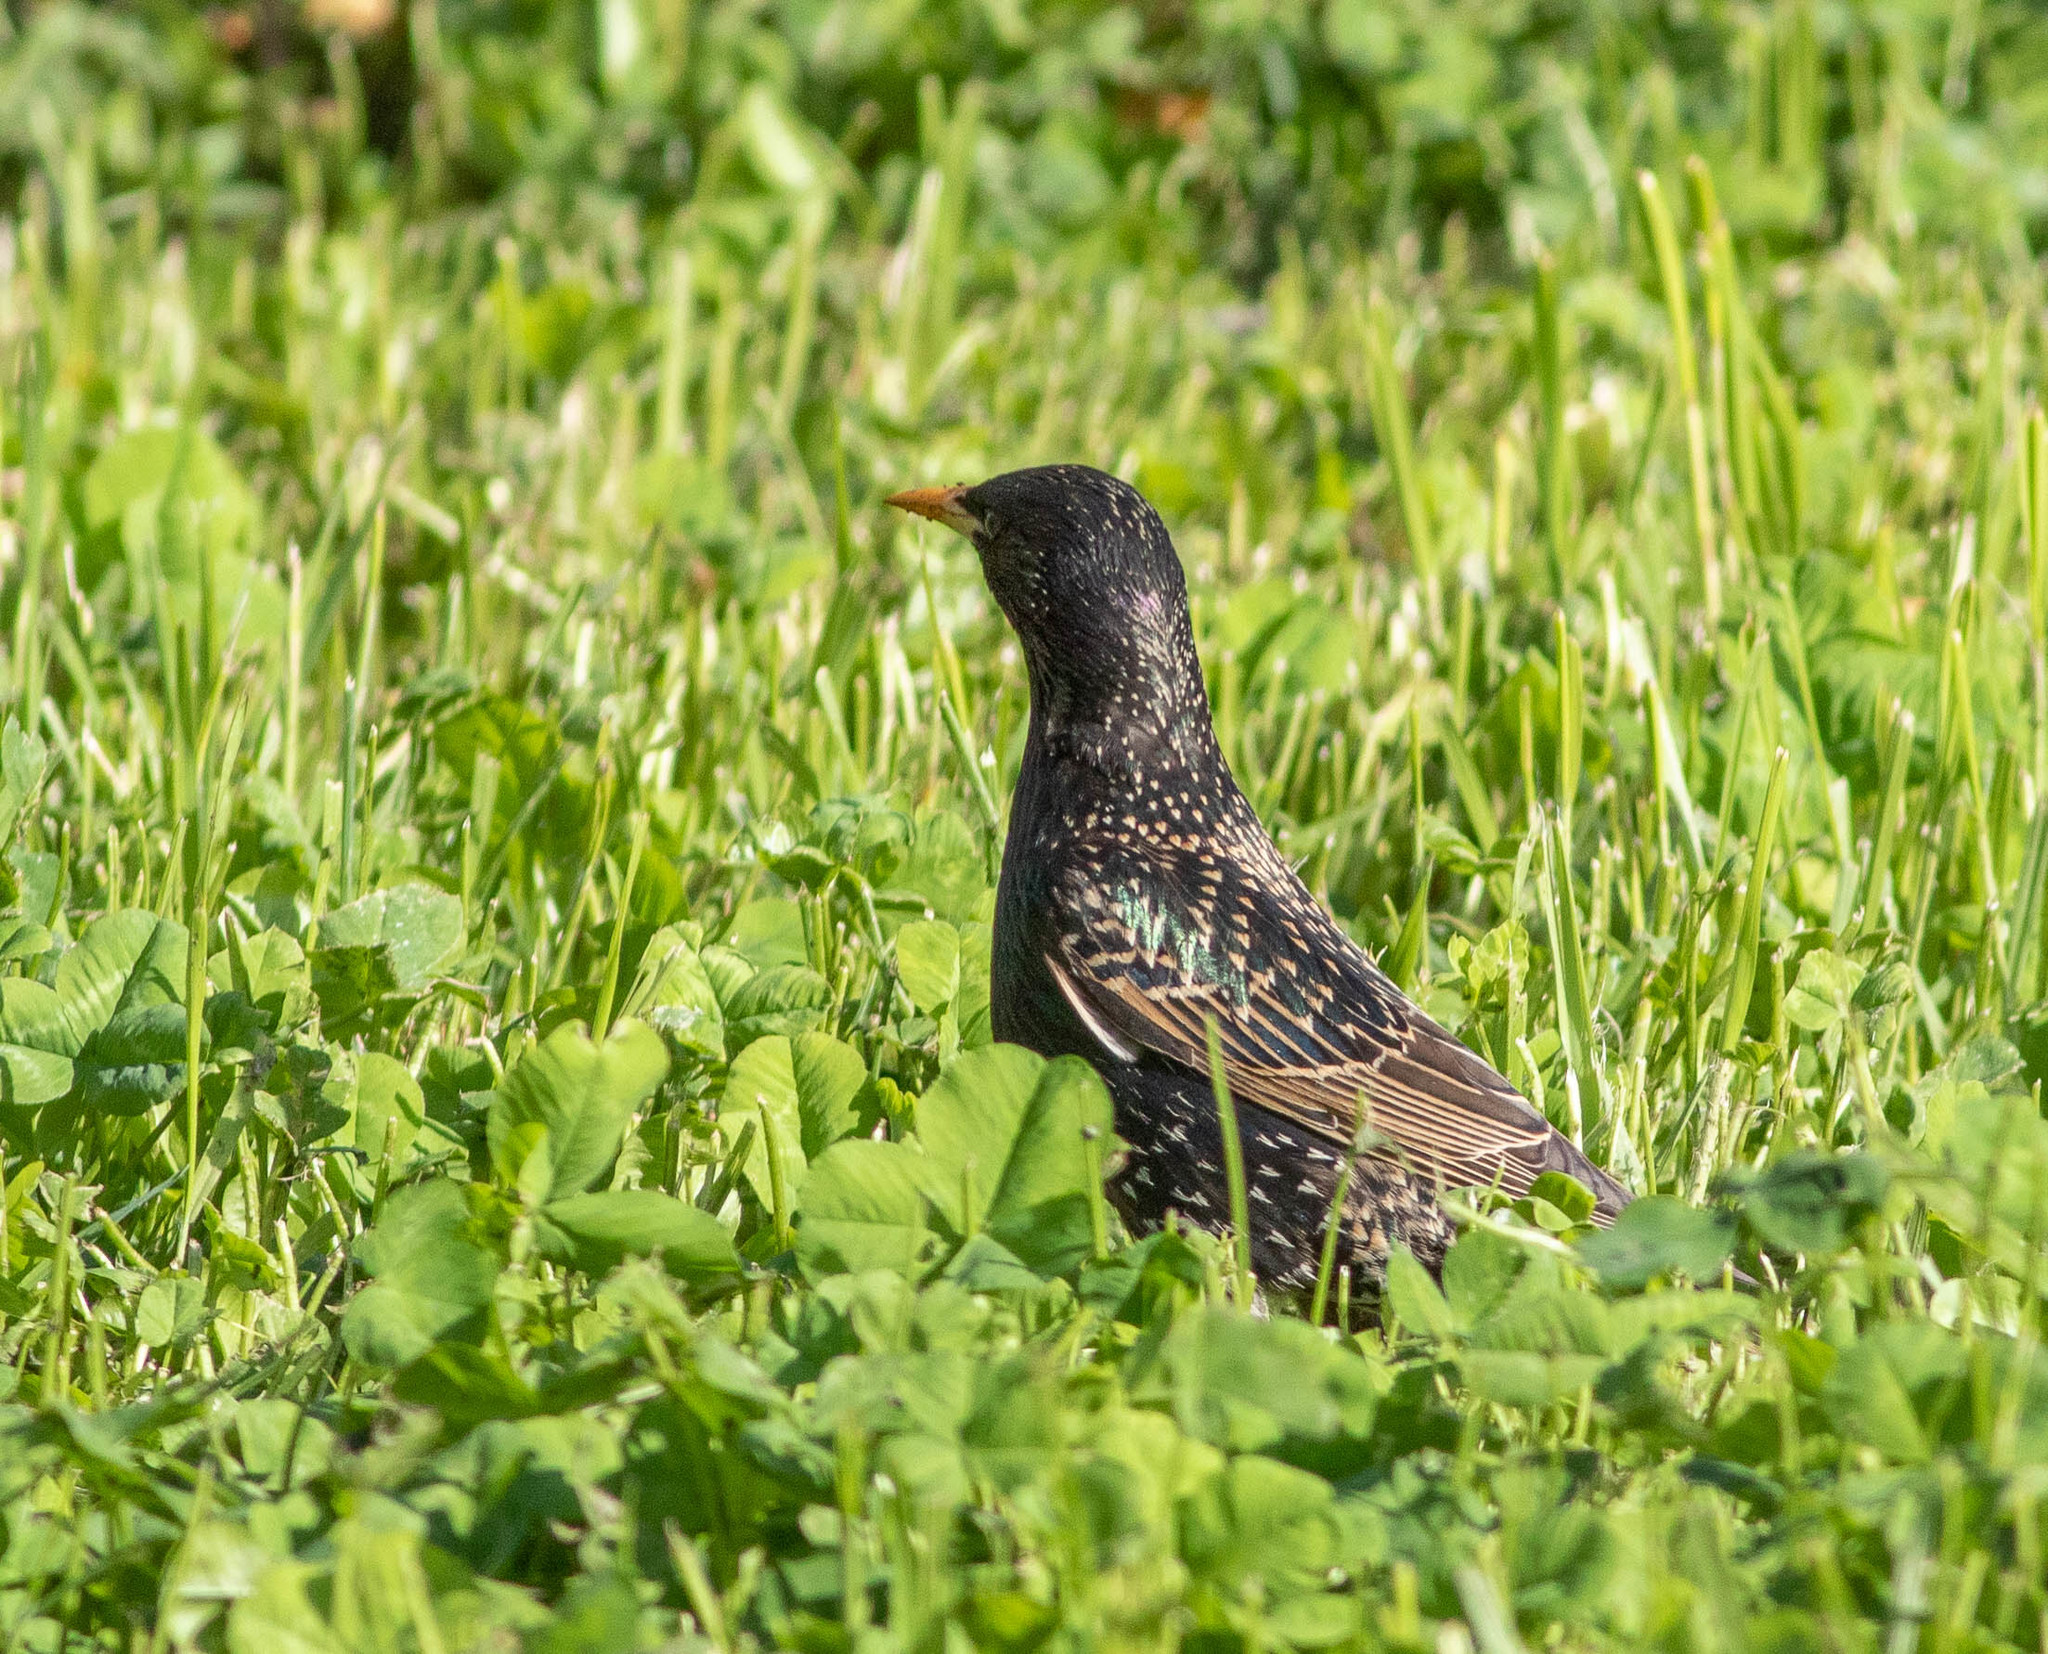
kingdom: Animalia
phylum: Chordata
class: Aves
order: Passeriformes
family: Sturnidae
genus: Sturnus
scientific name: Sturnus vulgaris
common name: Common starling
